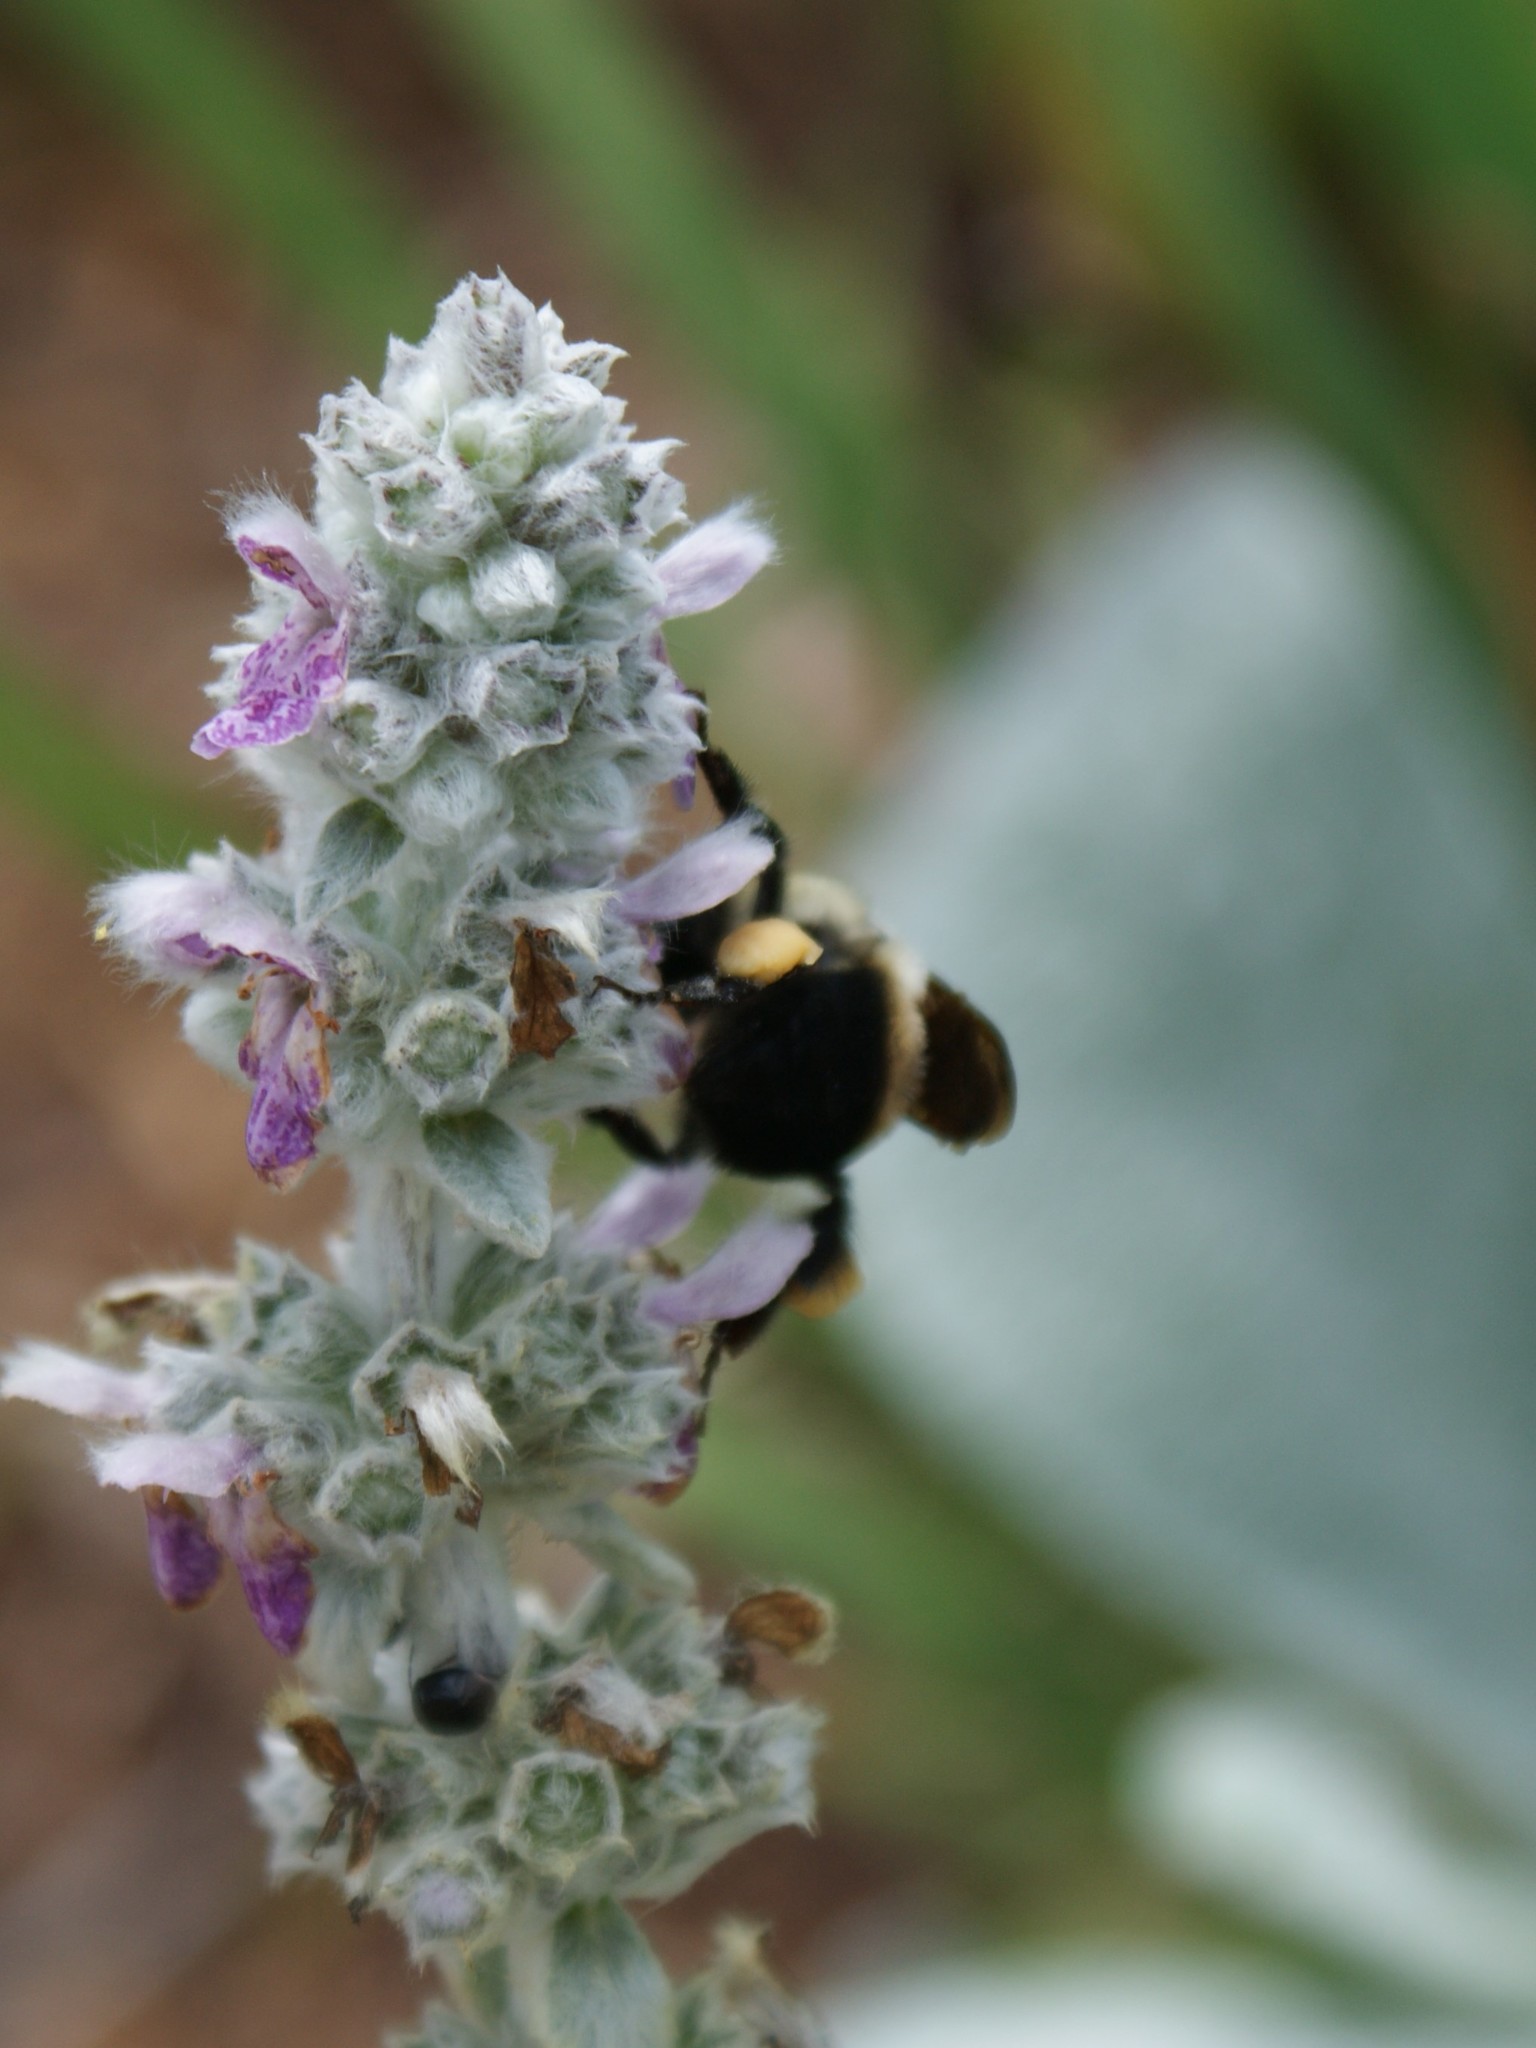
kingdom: Animalia
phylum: Arthropoda
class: Insecta
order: Hymenoptera
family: Apidae
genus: Bombus
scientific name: Bombus
